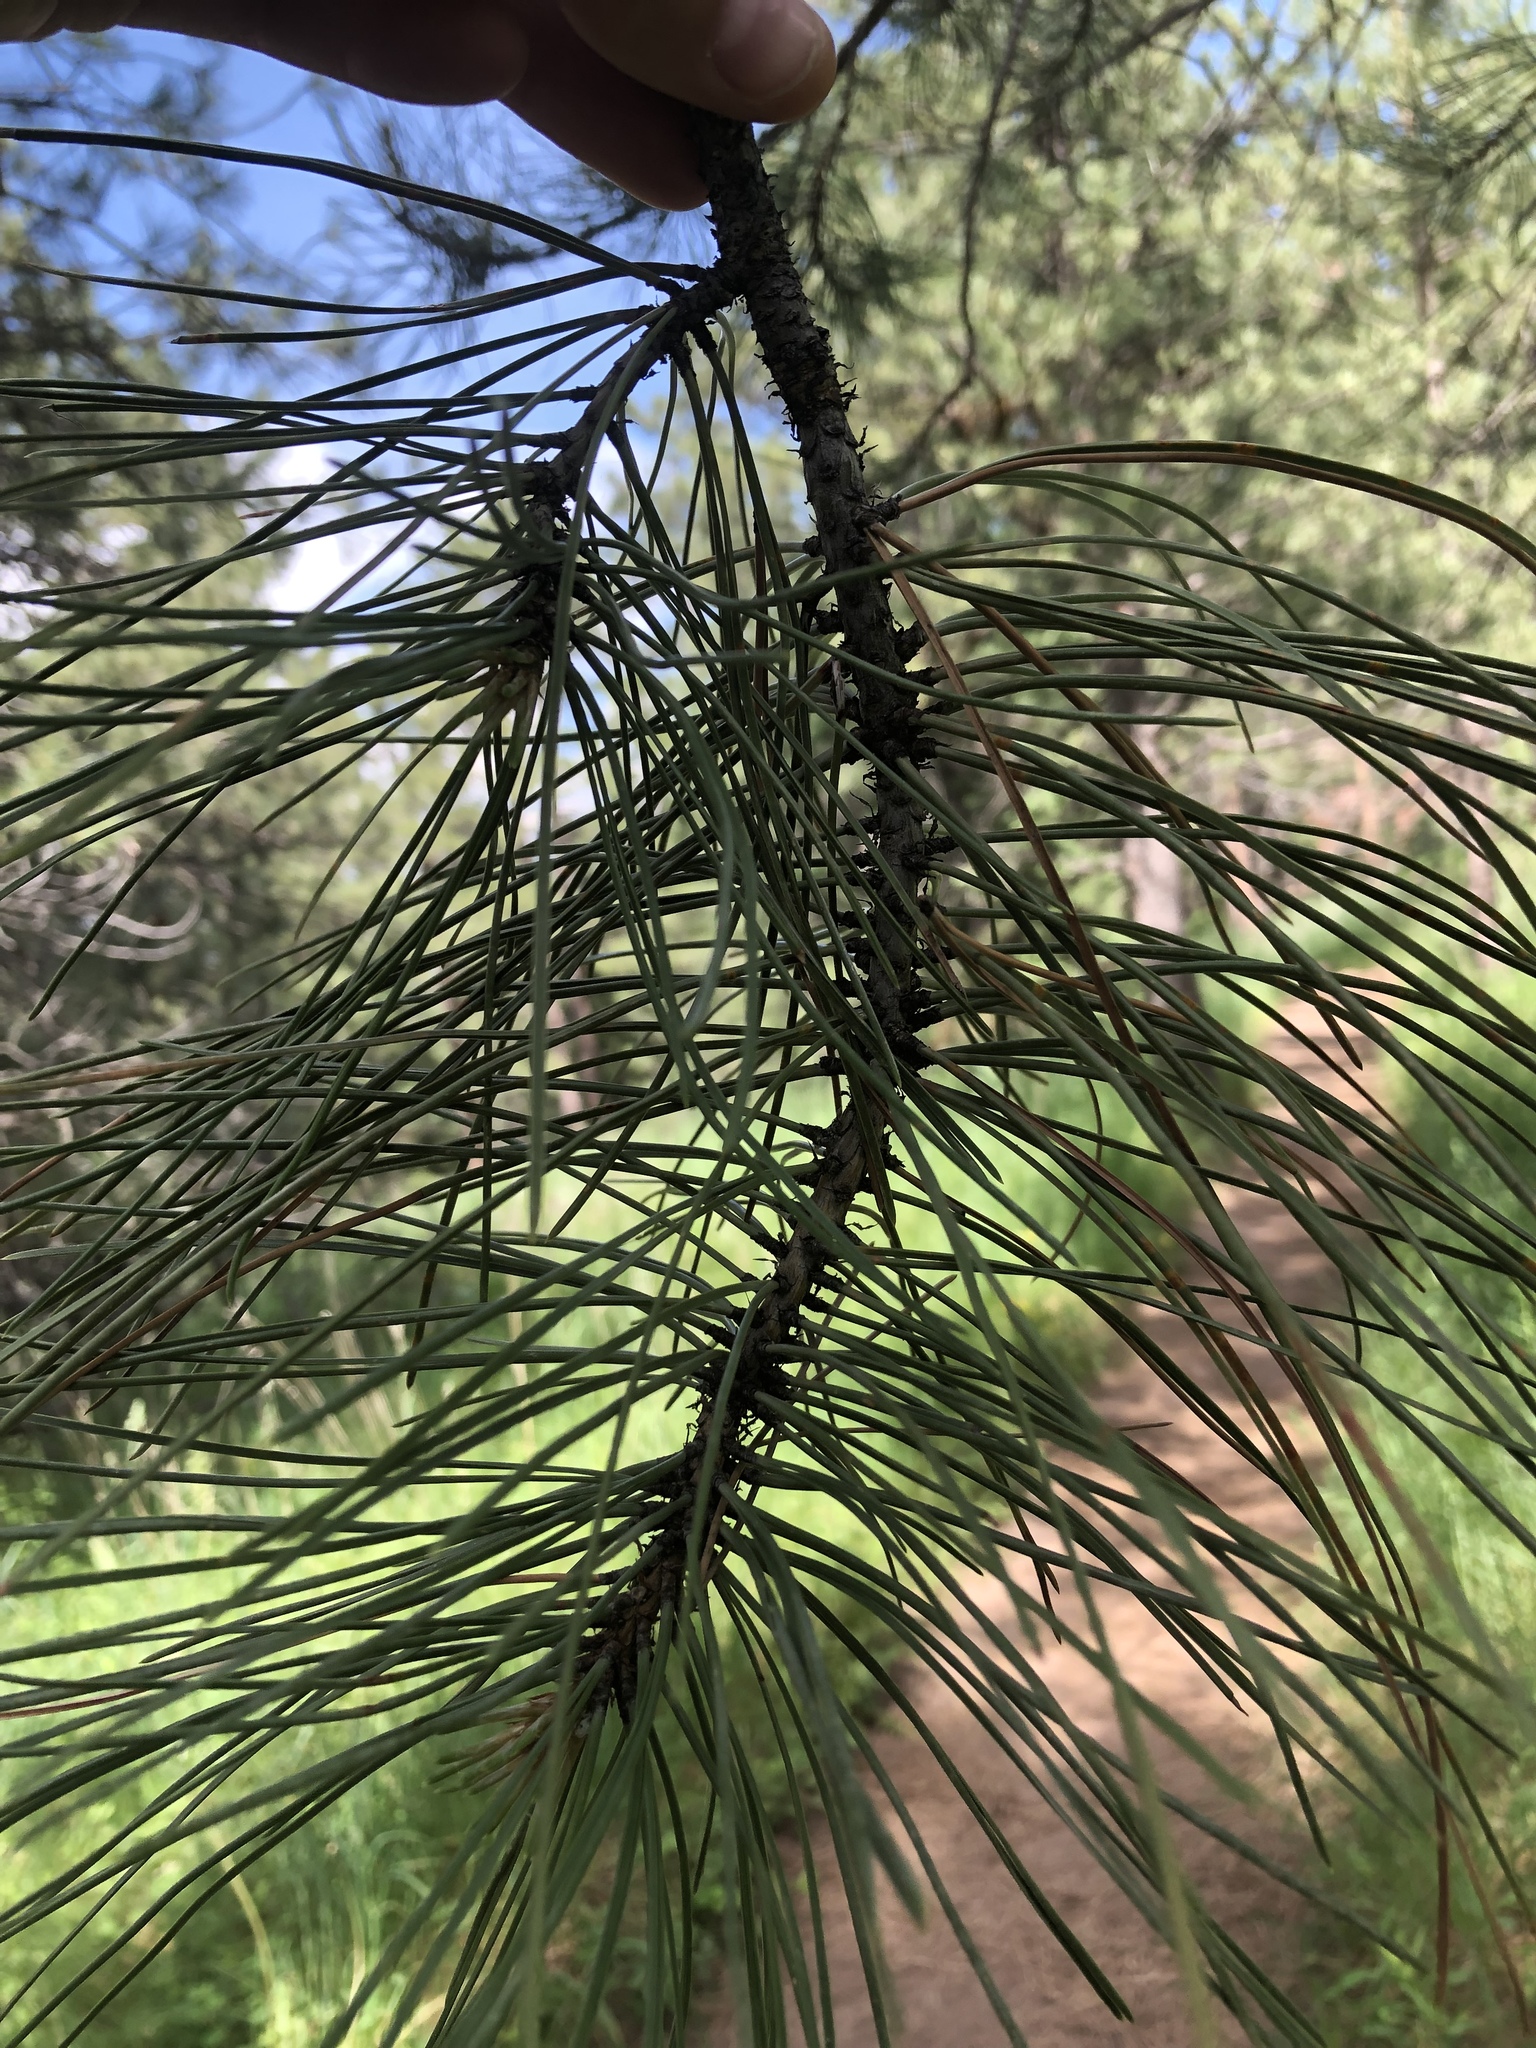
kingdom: Plantae
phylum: Tracheophyta
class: Pinopsida
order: Pinales
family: Pinaceae
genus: Pinus
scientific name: Pinus contorta
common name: Lodgepole pine
